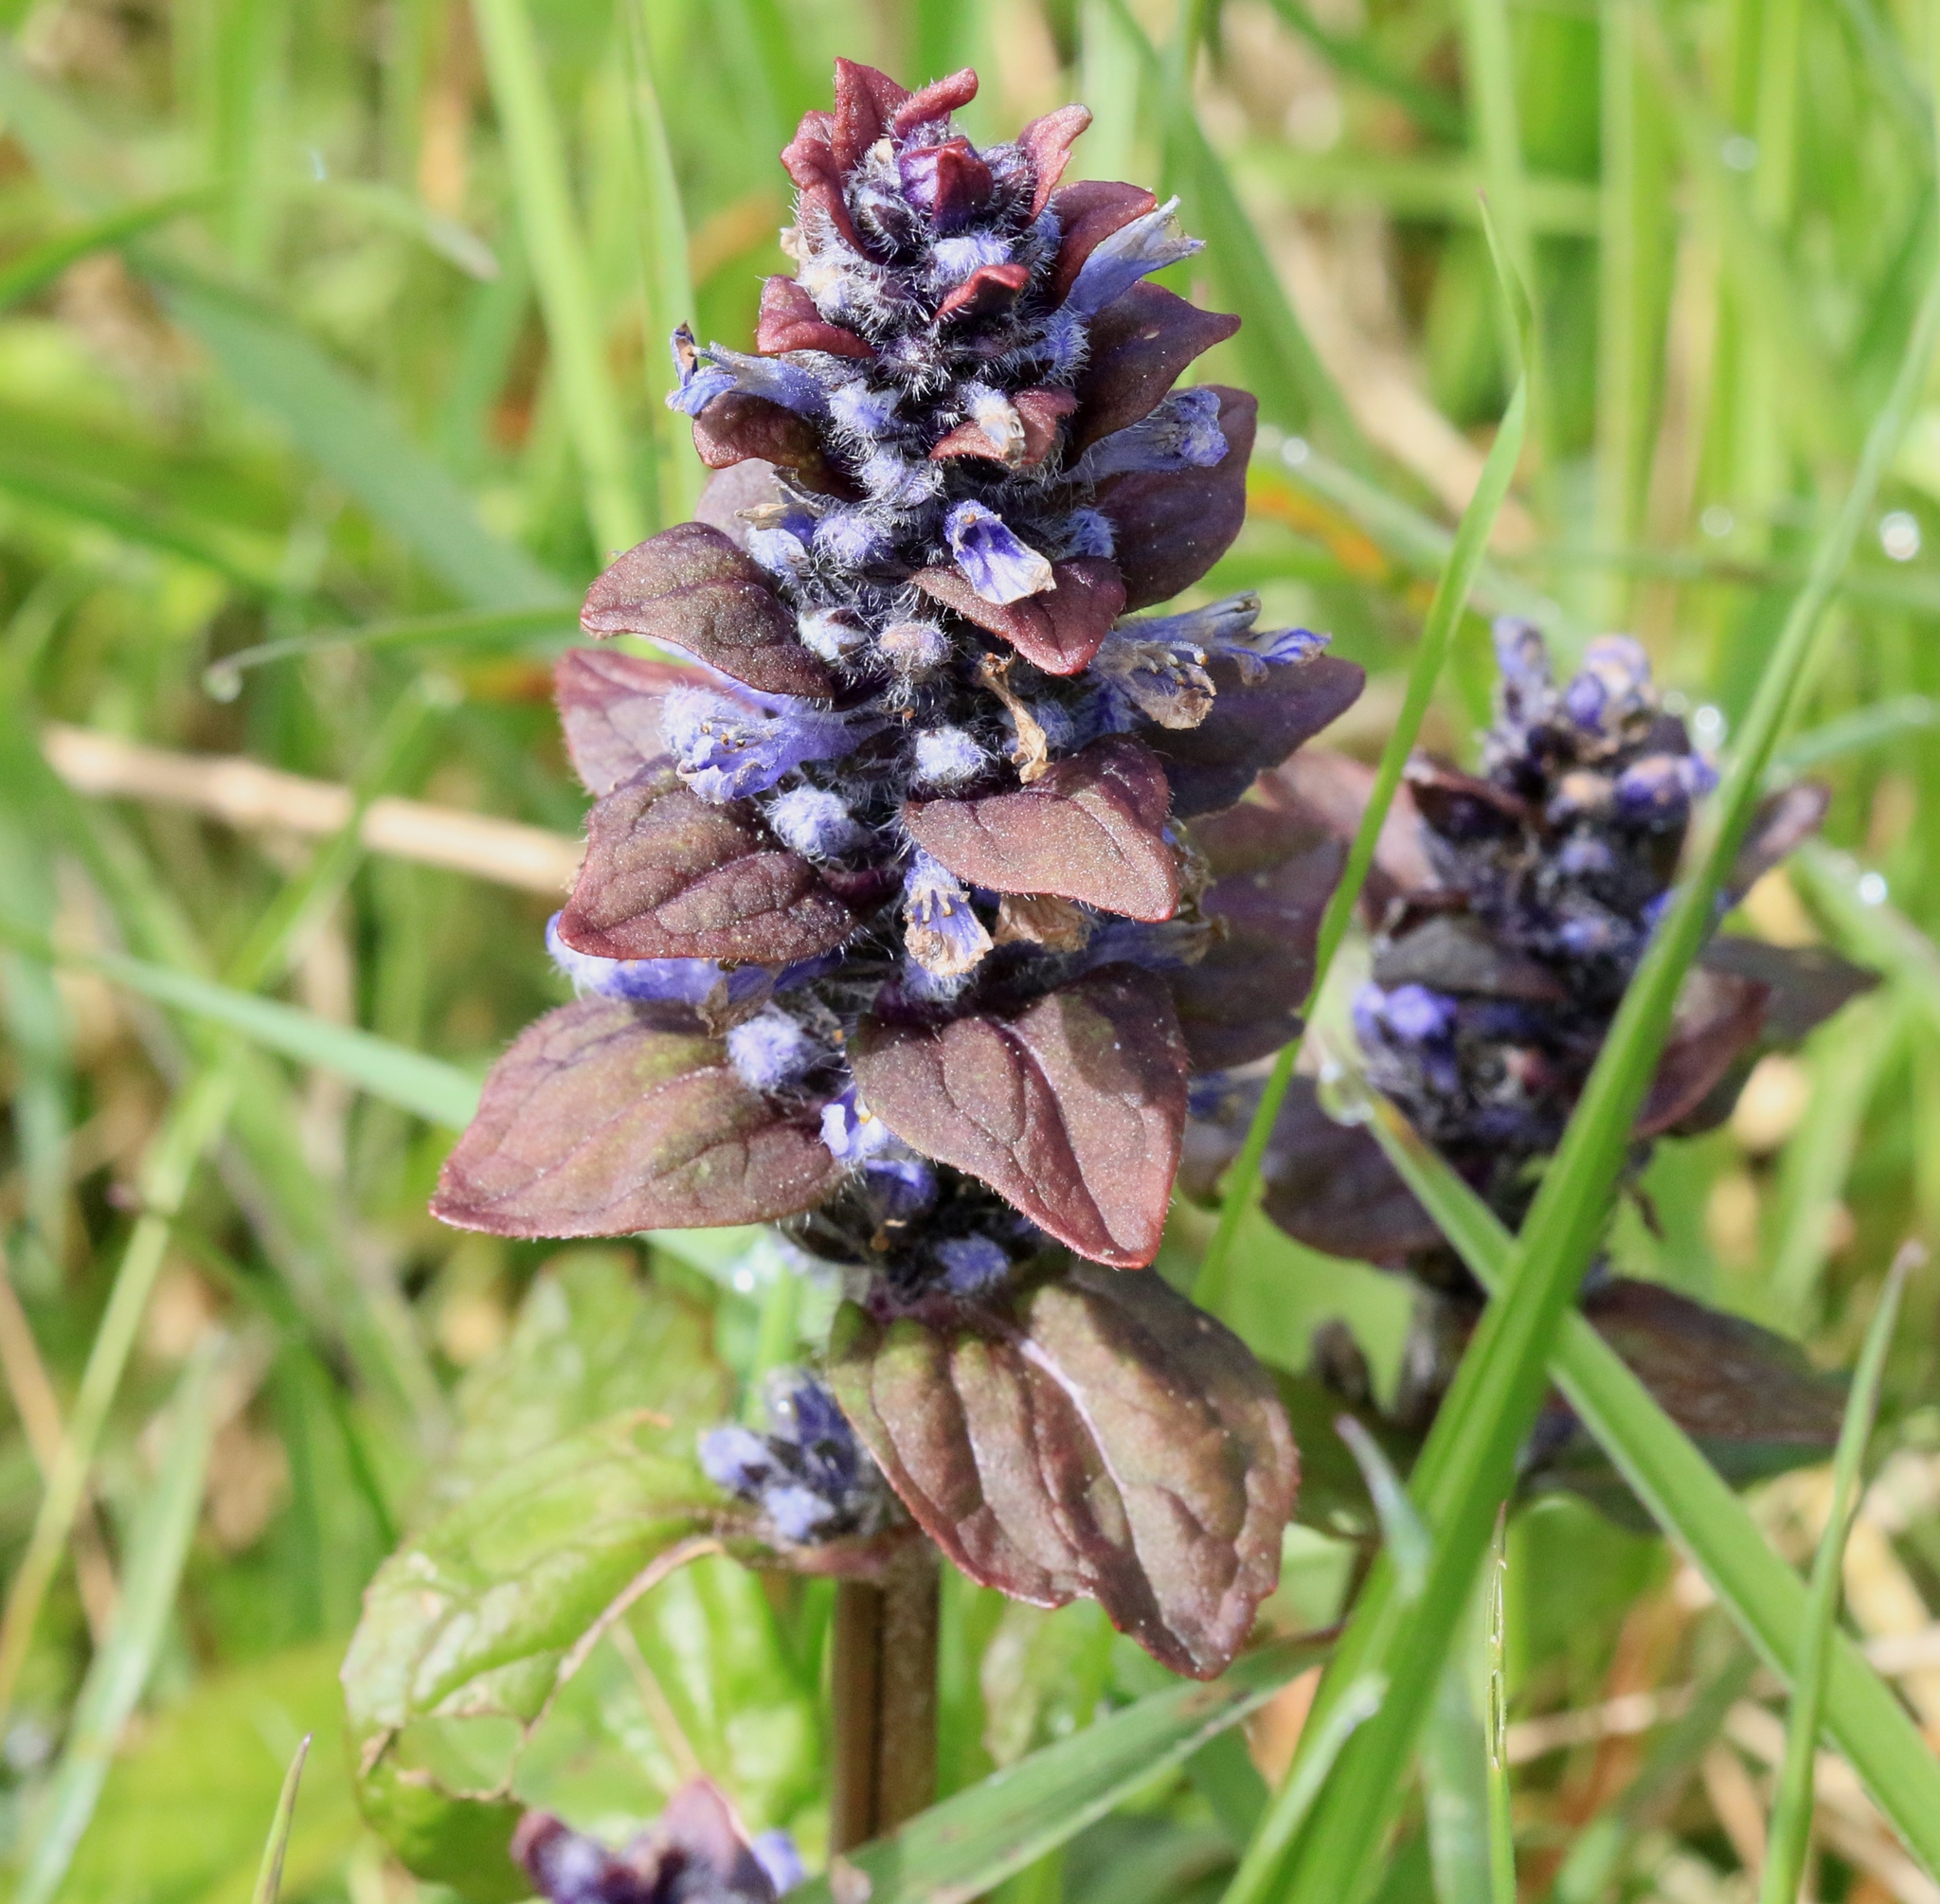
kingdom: Plantae
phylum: Tracheophyta
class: Magnoliopsida
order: Lamiales
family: Lamiaceae
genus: Ajuga
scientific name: Ajuga reptans
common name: Bugle
